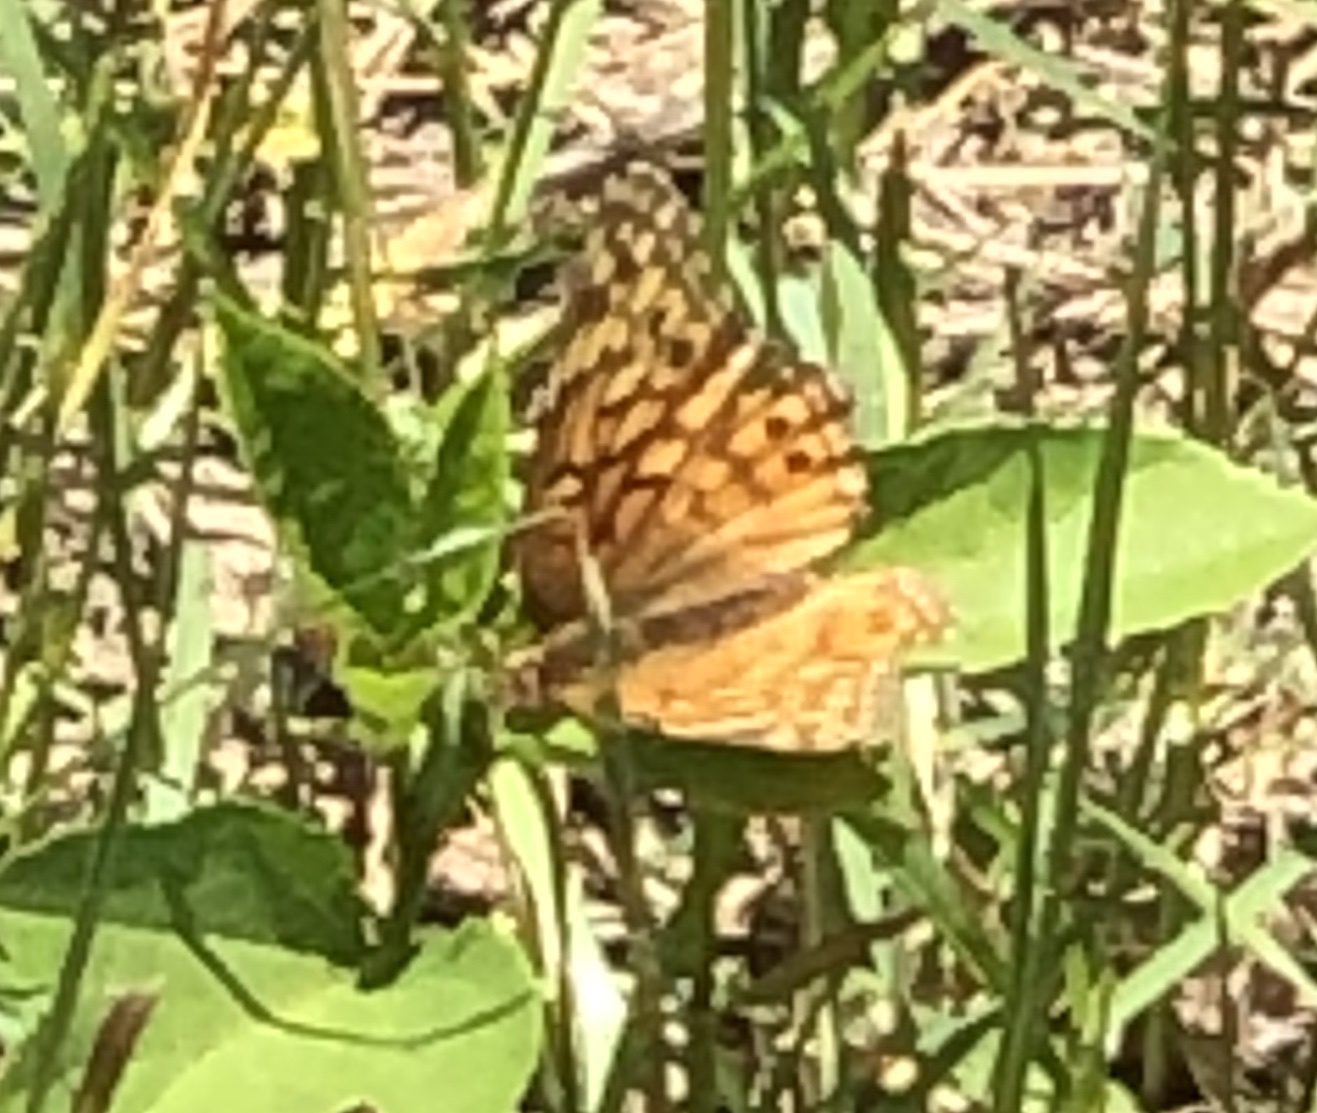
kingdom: Animalia
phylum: Arthropoda
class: Insecta
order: Lepidoptera
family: Nymphalidae
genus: Euptoieta
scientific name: Euptoieta claudia
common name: Variegated fritillary
